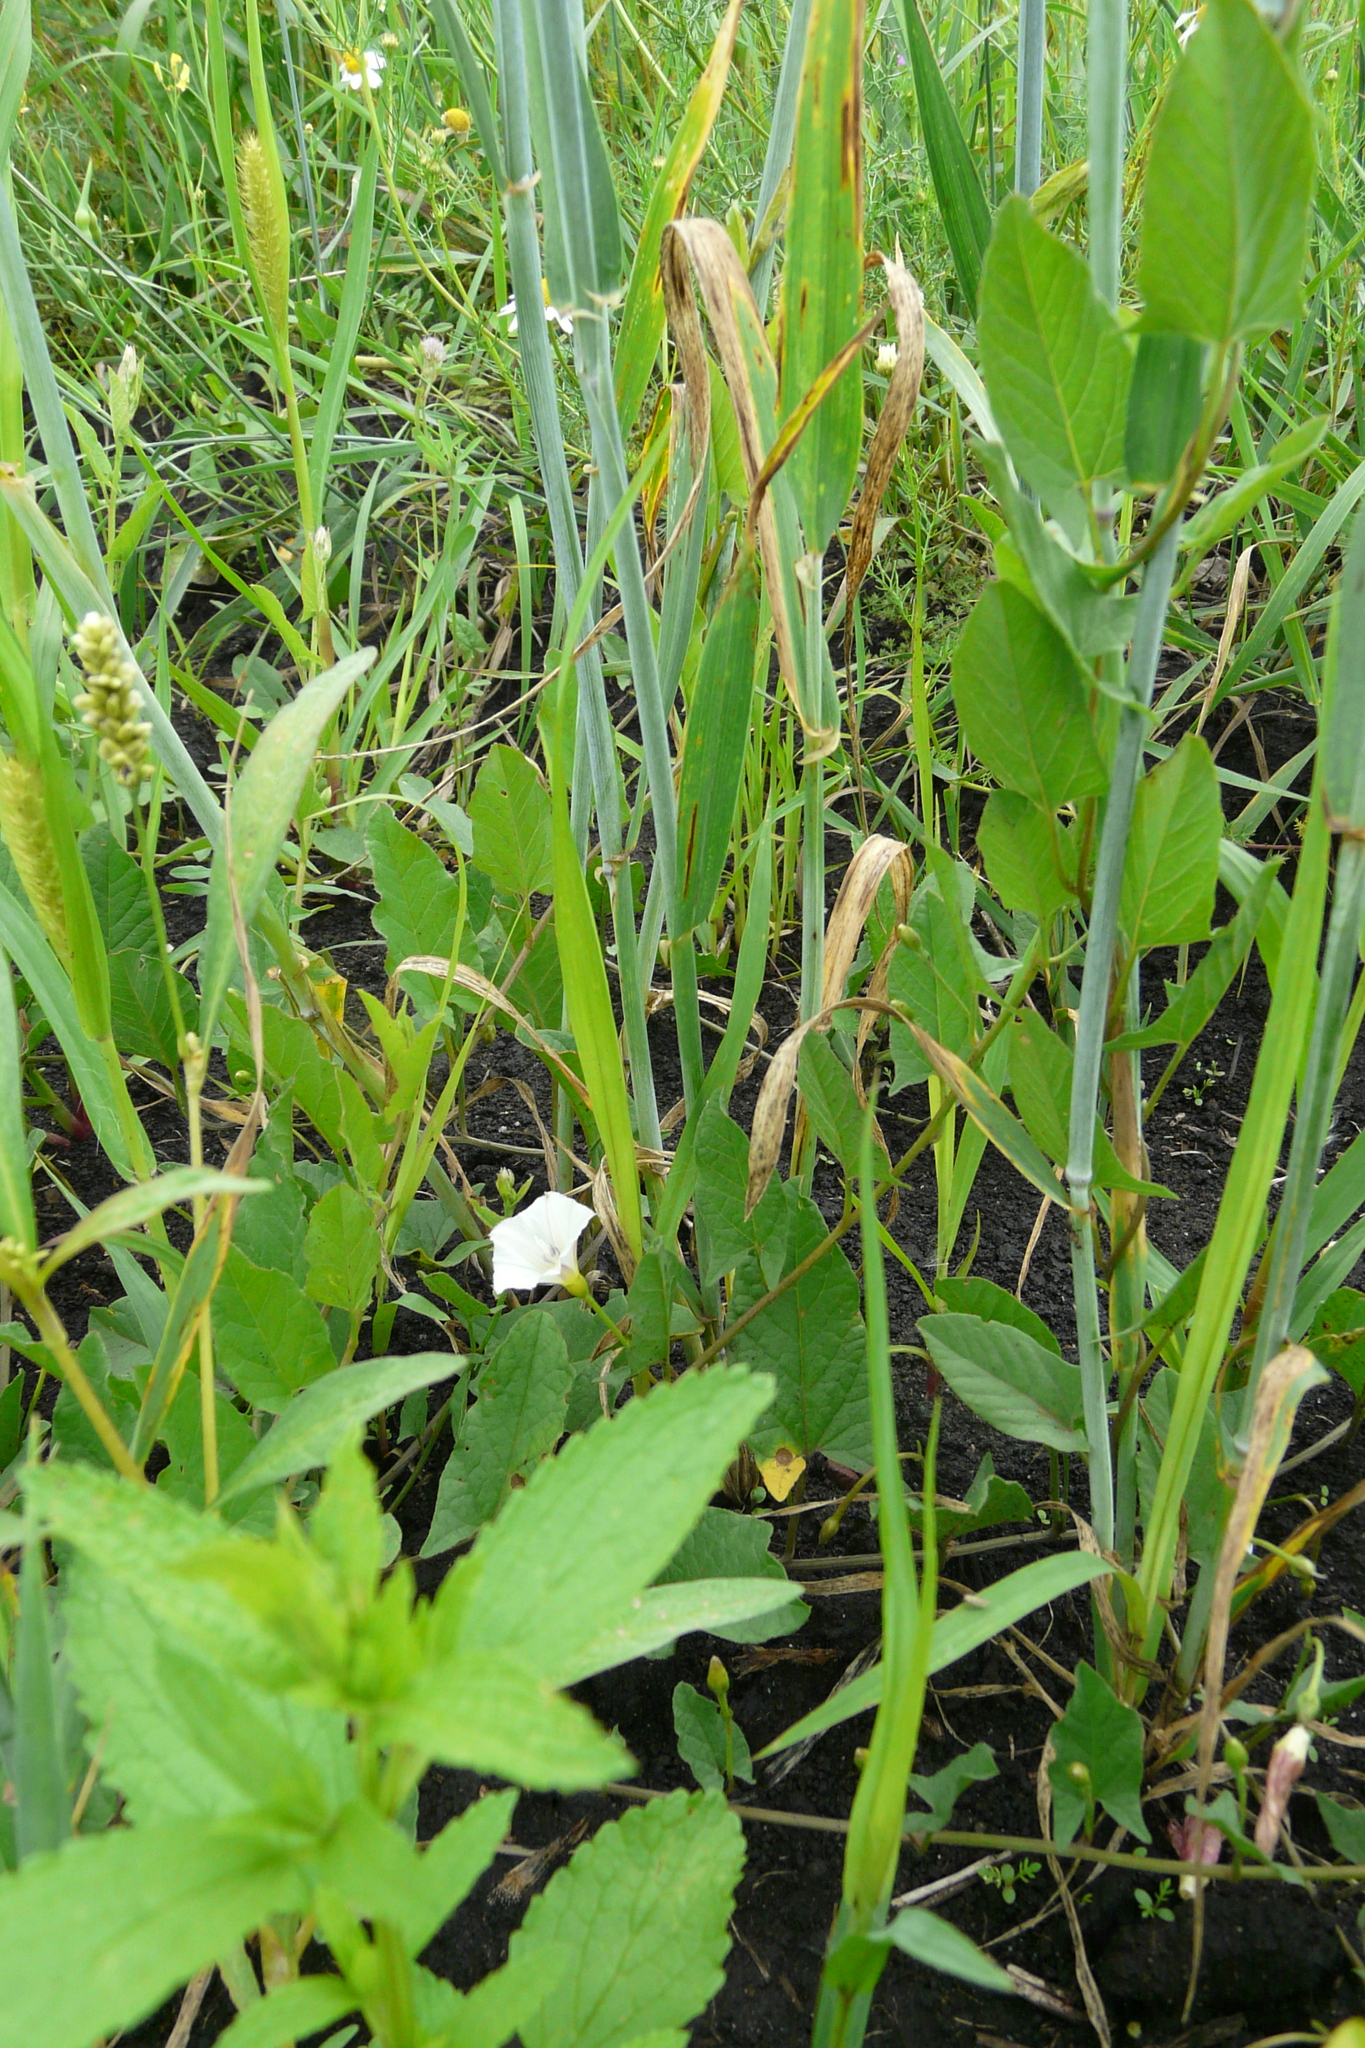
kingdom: Plantae
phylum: Tracheophyta
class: Magnoliopsida
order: Solanales
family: Convolvulaceae
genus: Convolvulus
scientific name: Convolvulus arvensis
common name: Field bindweed
